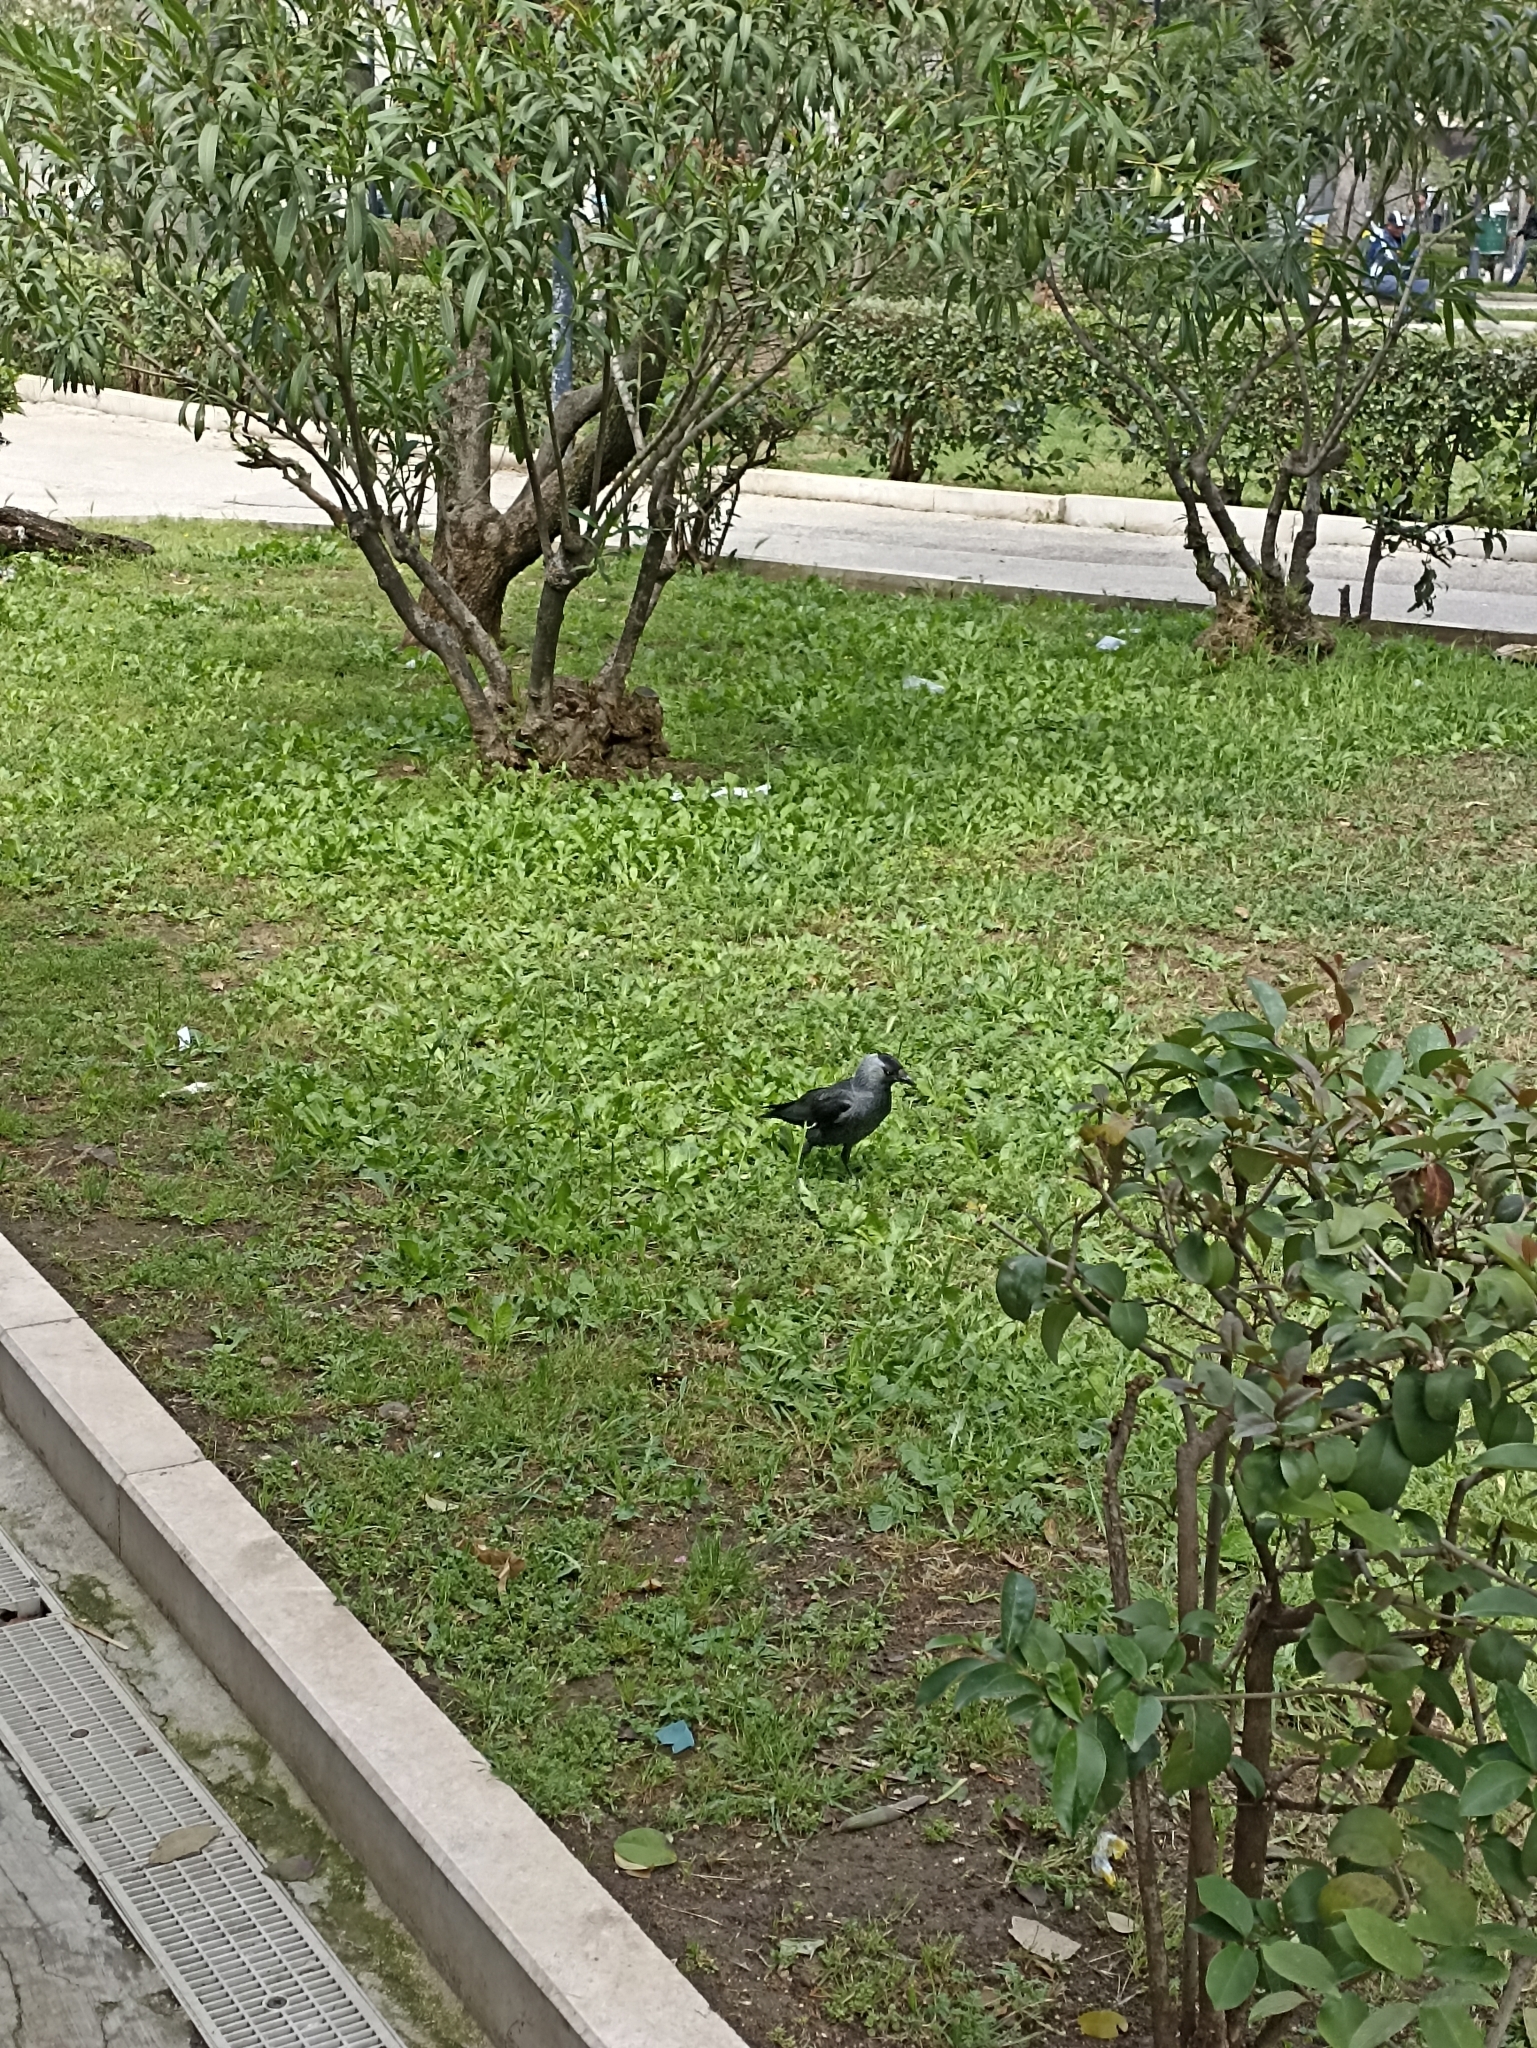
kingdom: Animalia
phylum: Chordata
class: Aves
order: Passeriformes
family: Corvidae
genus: Coloeus
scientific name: Coloeus monedula
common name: Western jackdaw
